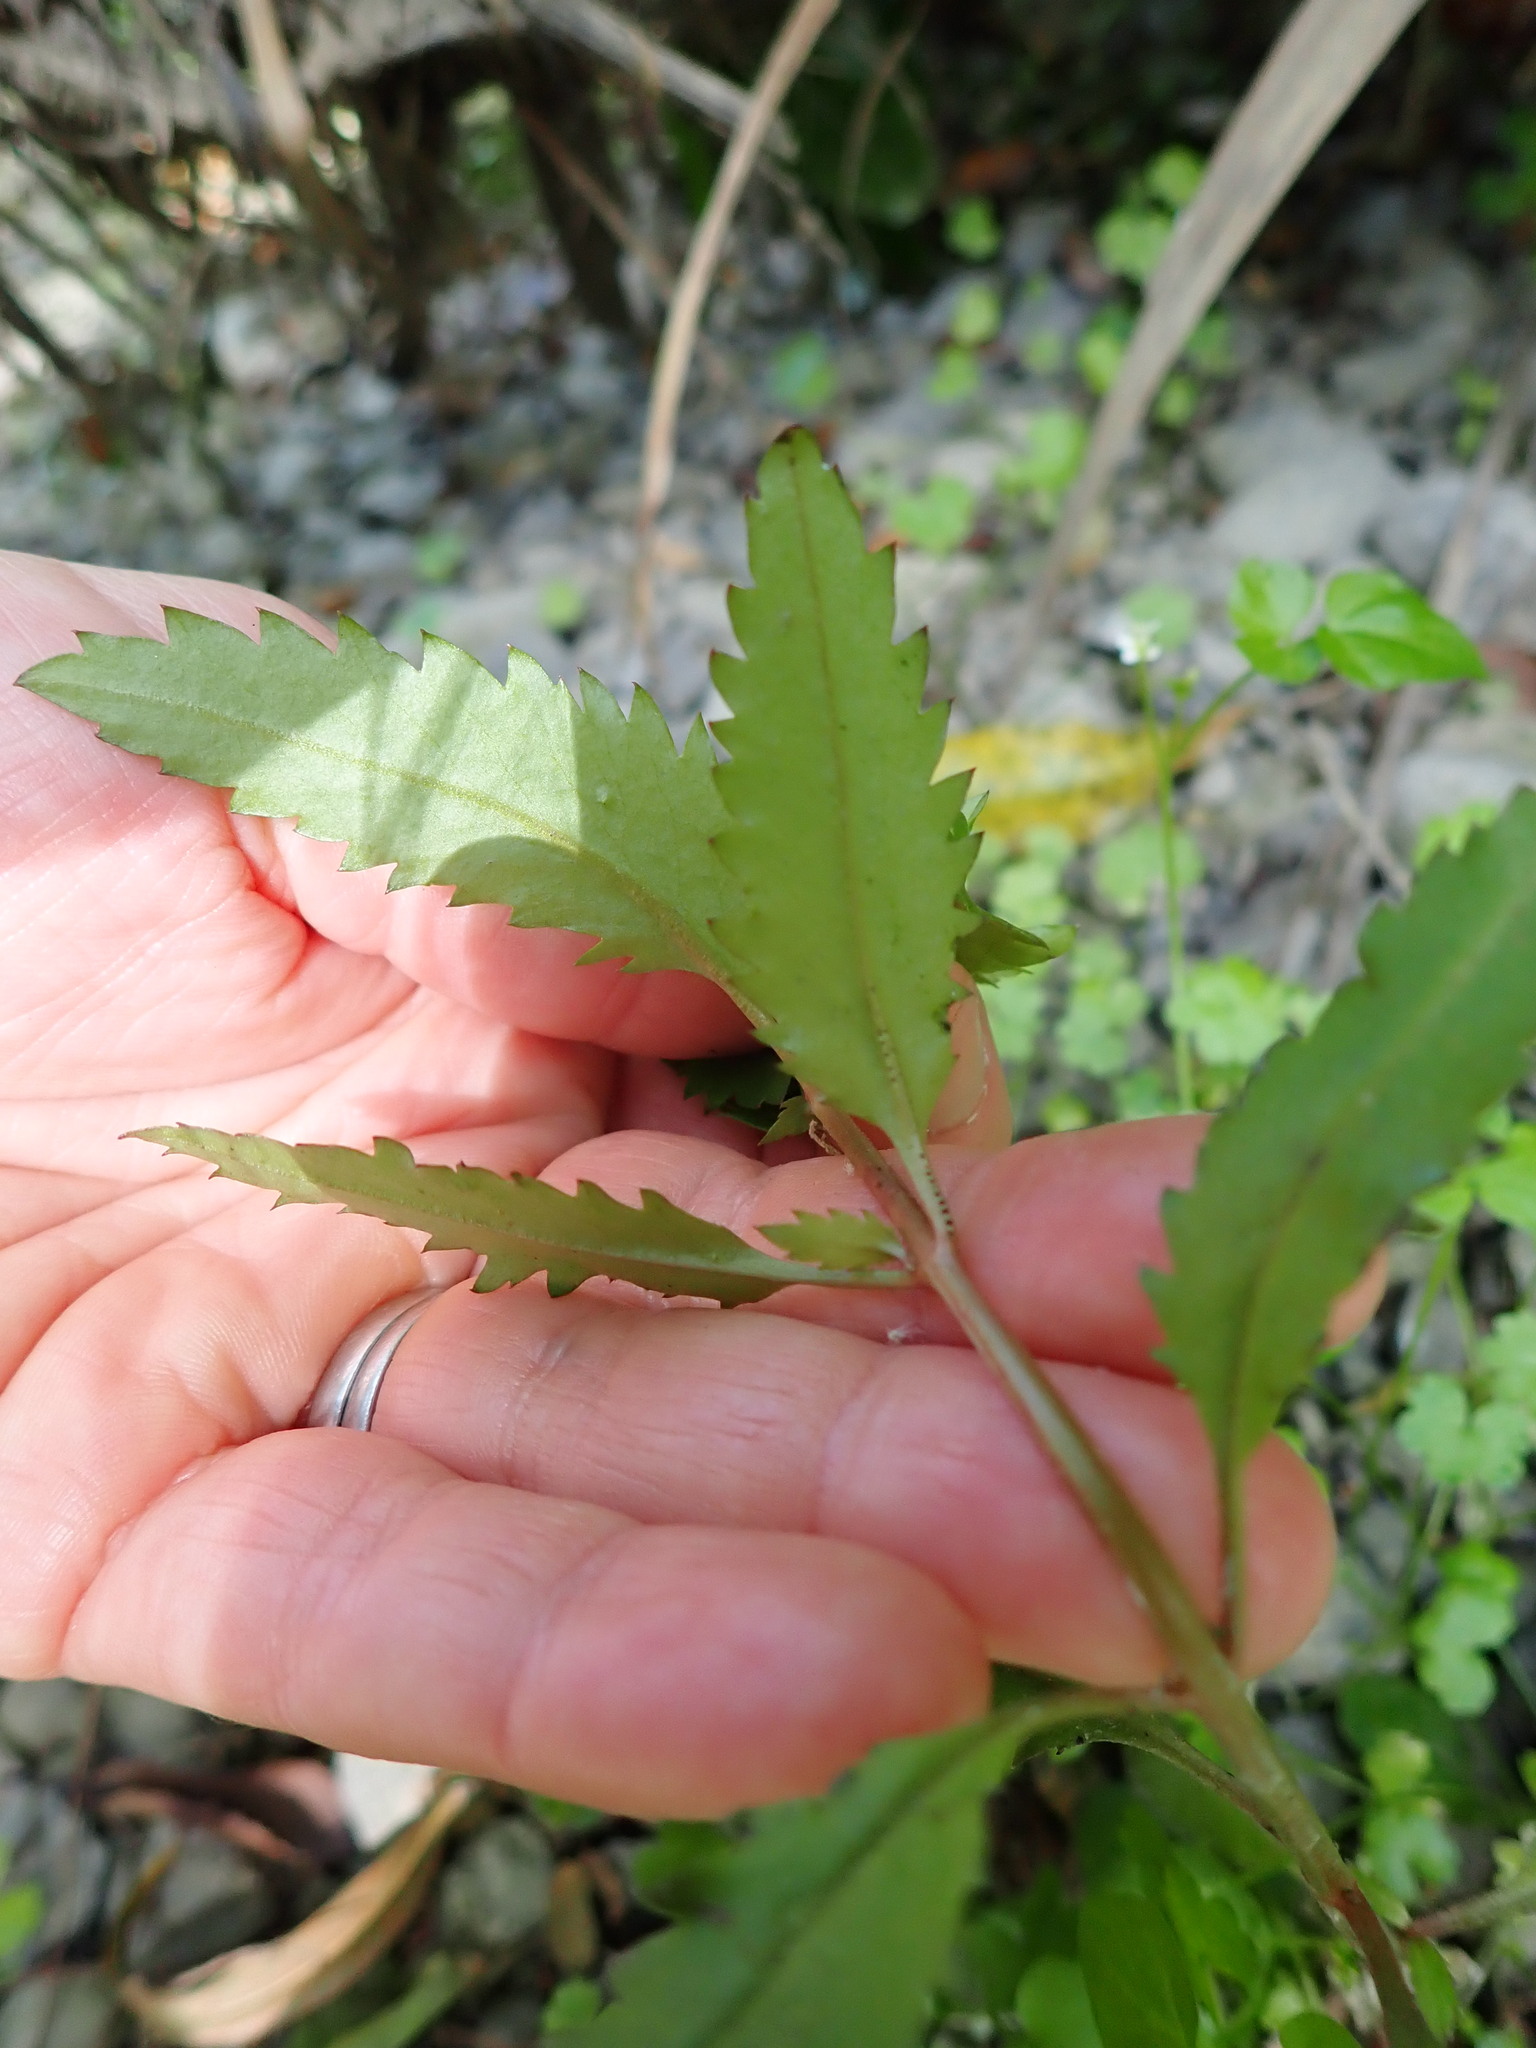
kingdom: Plantae
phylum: Tracheophyta
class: Magnoliopsida
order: Saxifragales
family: Haloragaceae
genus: Haloragis
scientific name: Haloragis erecta
